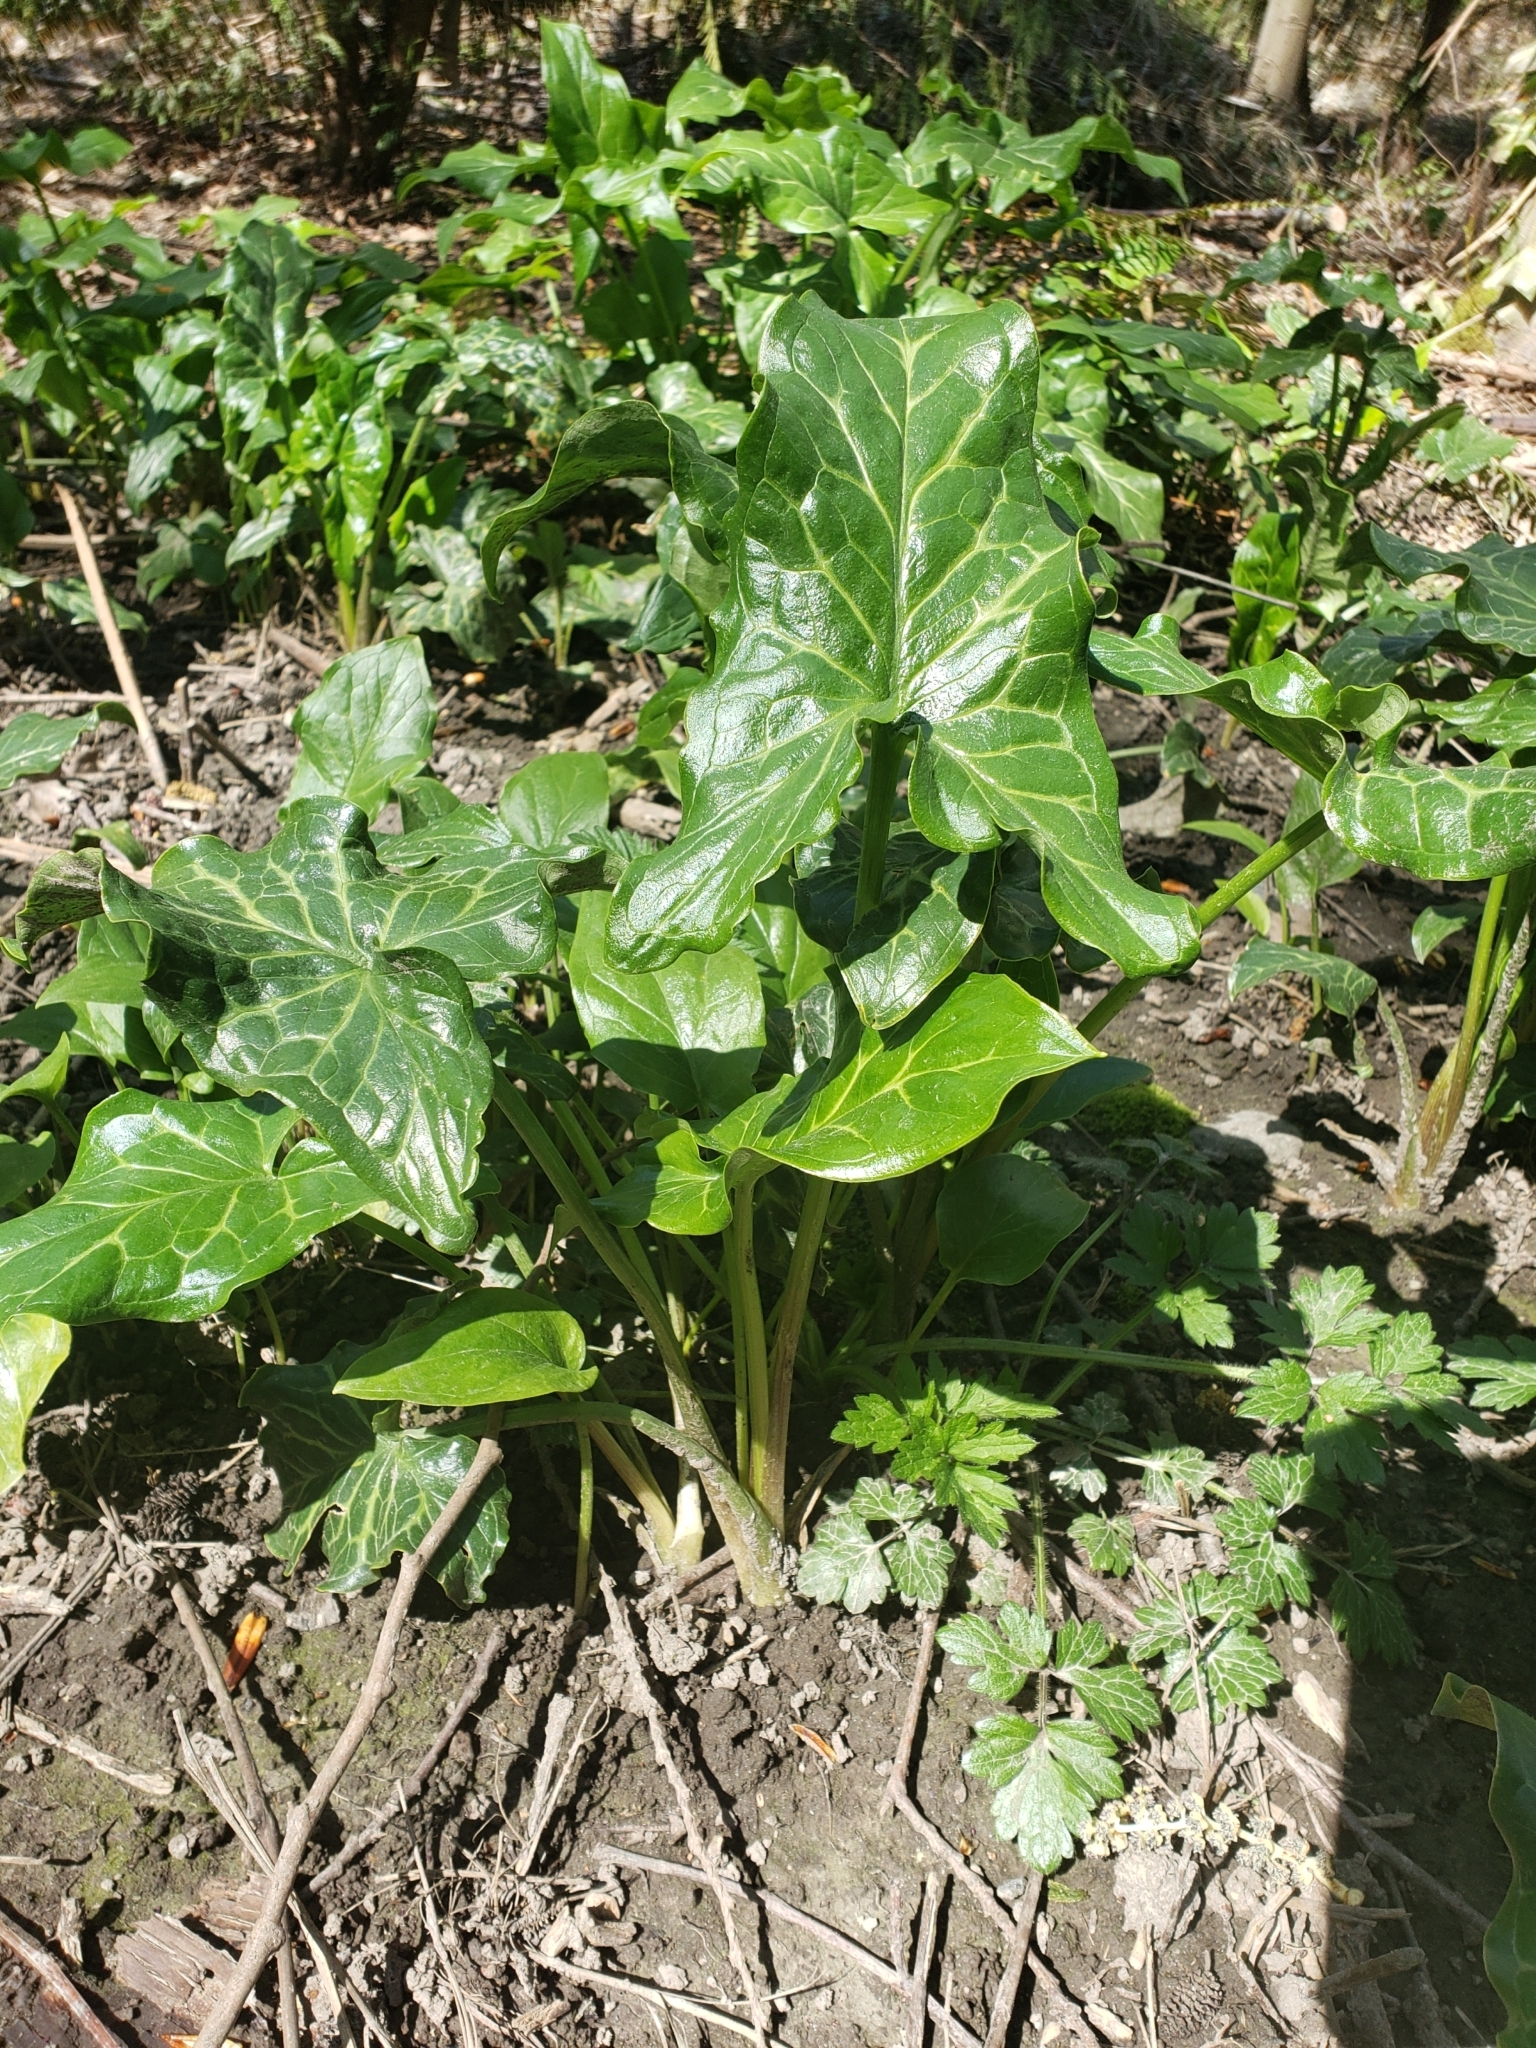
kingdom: Plantae
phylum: Tracheophyta
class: Liliopsida
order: Alismatales
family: Araceae
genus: Arum
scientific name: Arum italicum
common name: Italian lords-and-ladies
